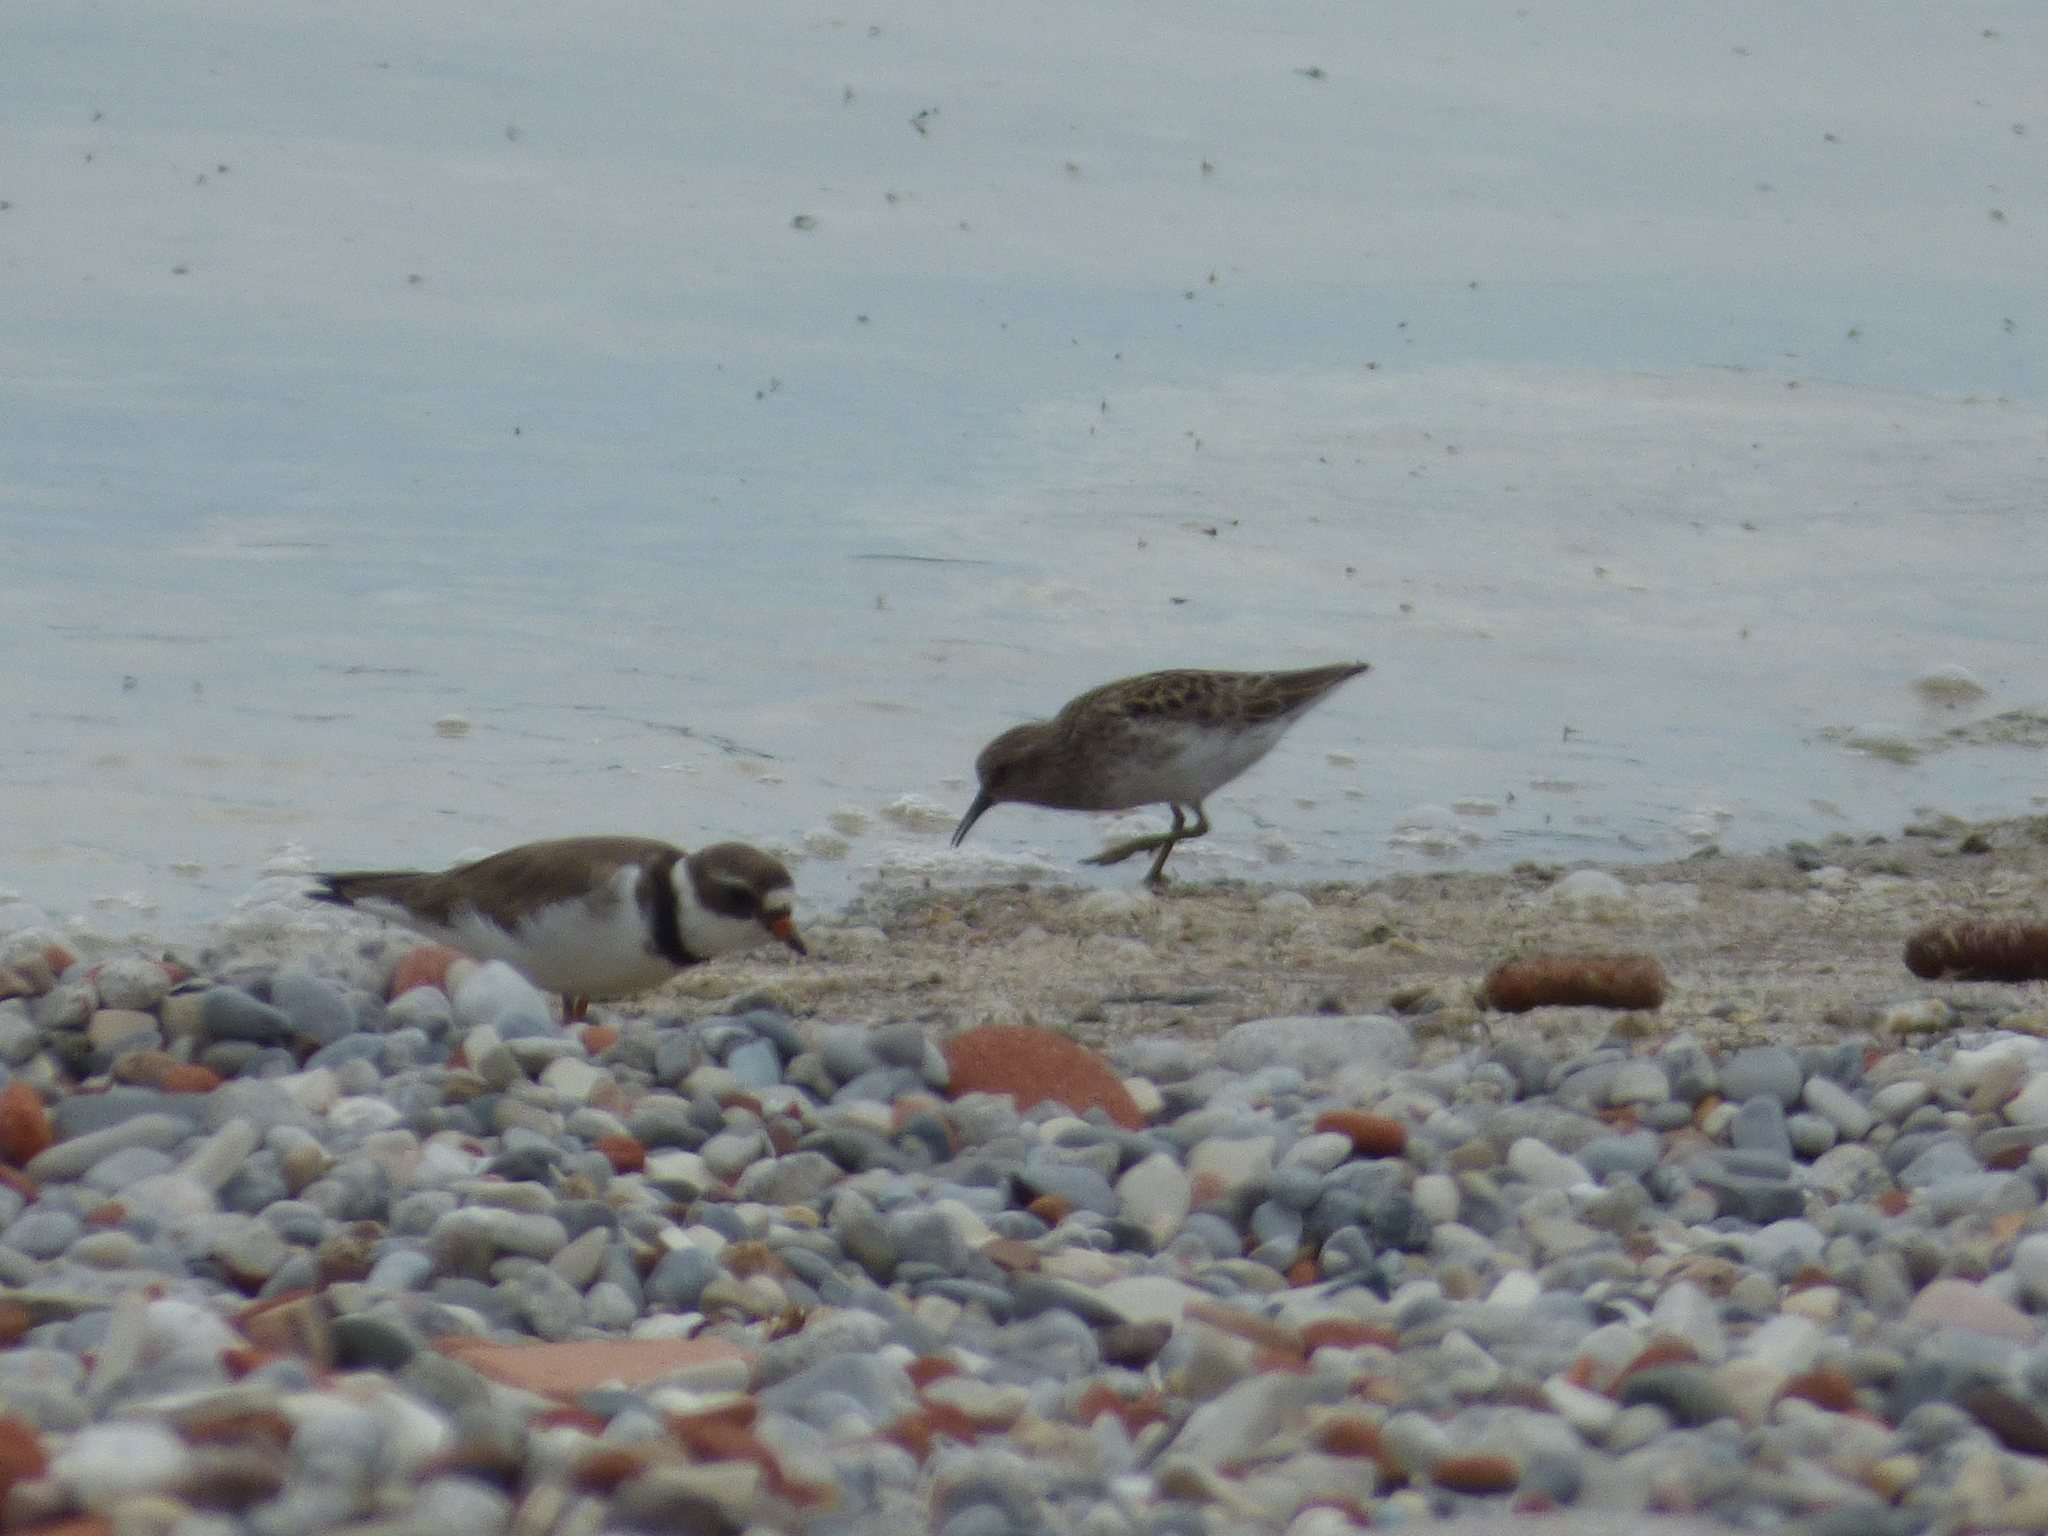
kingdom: Animalia
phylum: Chordata
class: Aves
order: Charadriiformes
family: Charadriidae
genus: Charadrius
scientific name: Charadrius semipalmatus
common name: Semipalmated plover
